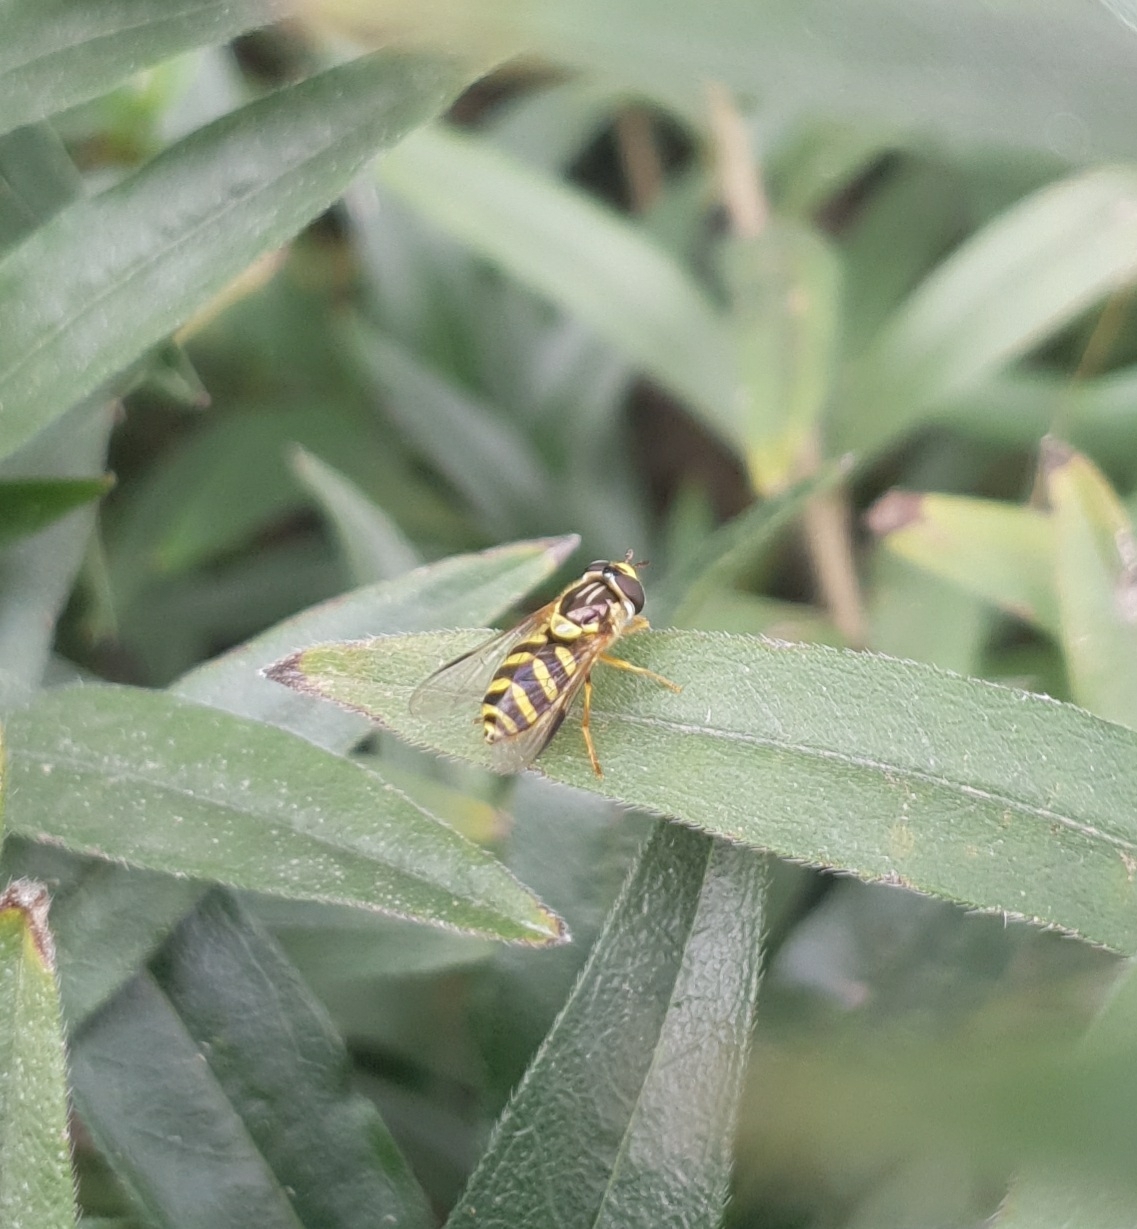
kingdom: Animalia
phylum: Arthropoda
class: Insecta
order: Diptera
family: Syrphidae
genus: Dasysyrphus
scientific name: Dasysyrphus albostriatus
